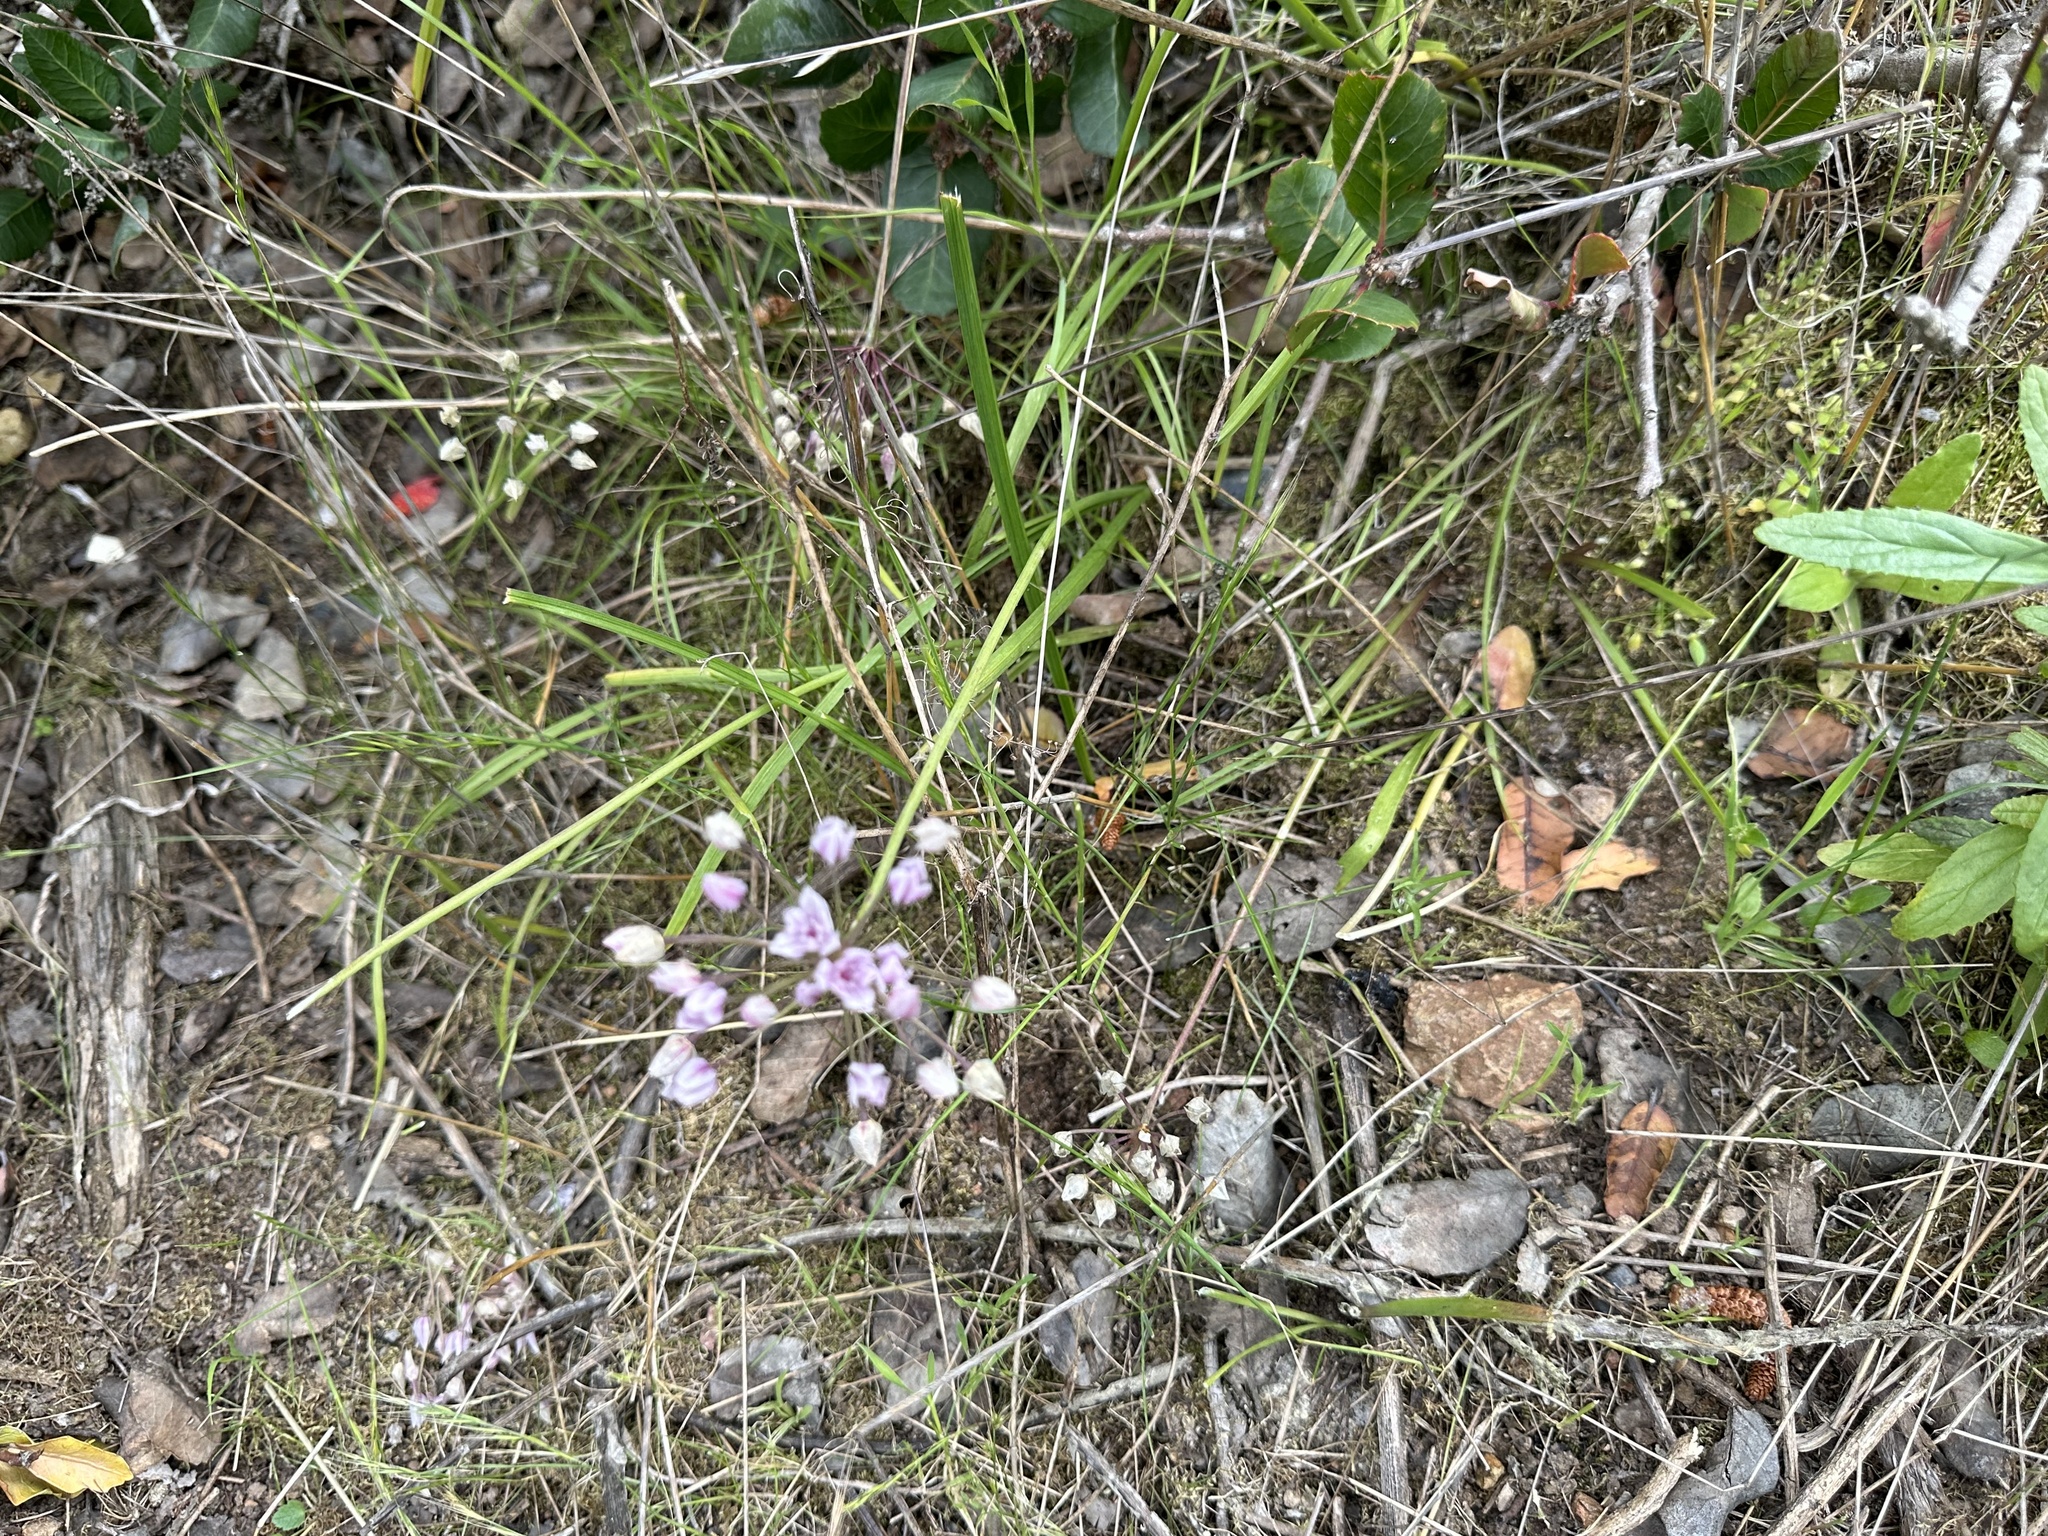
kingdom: Plantae
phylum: Tracheophyta
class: Liliopsida
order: Asparagales
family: Amaryllidaceae
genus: Allium
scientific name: Allium praecox
